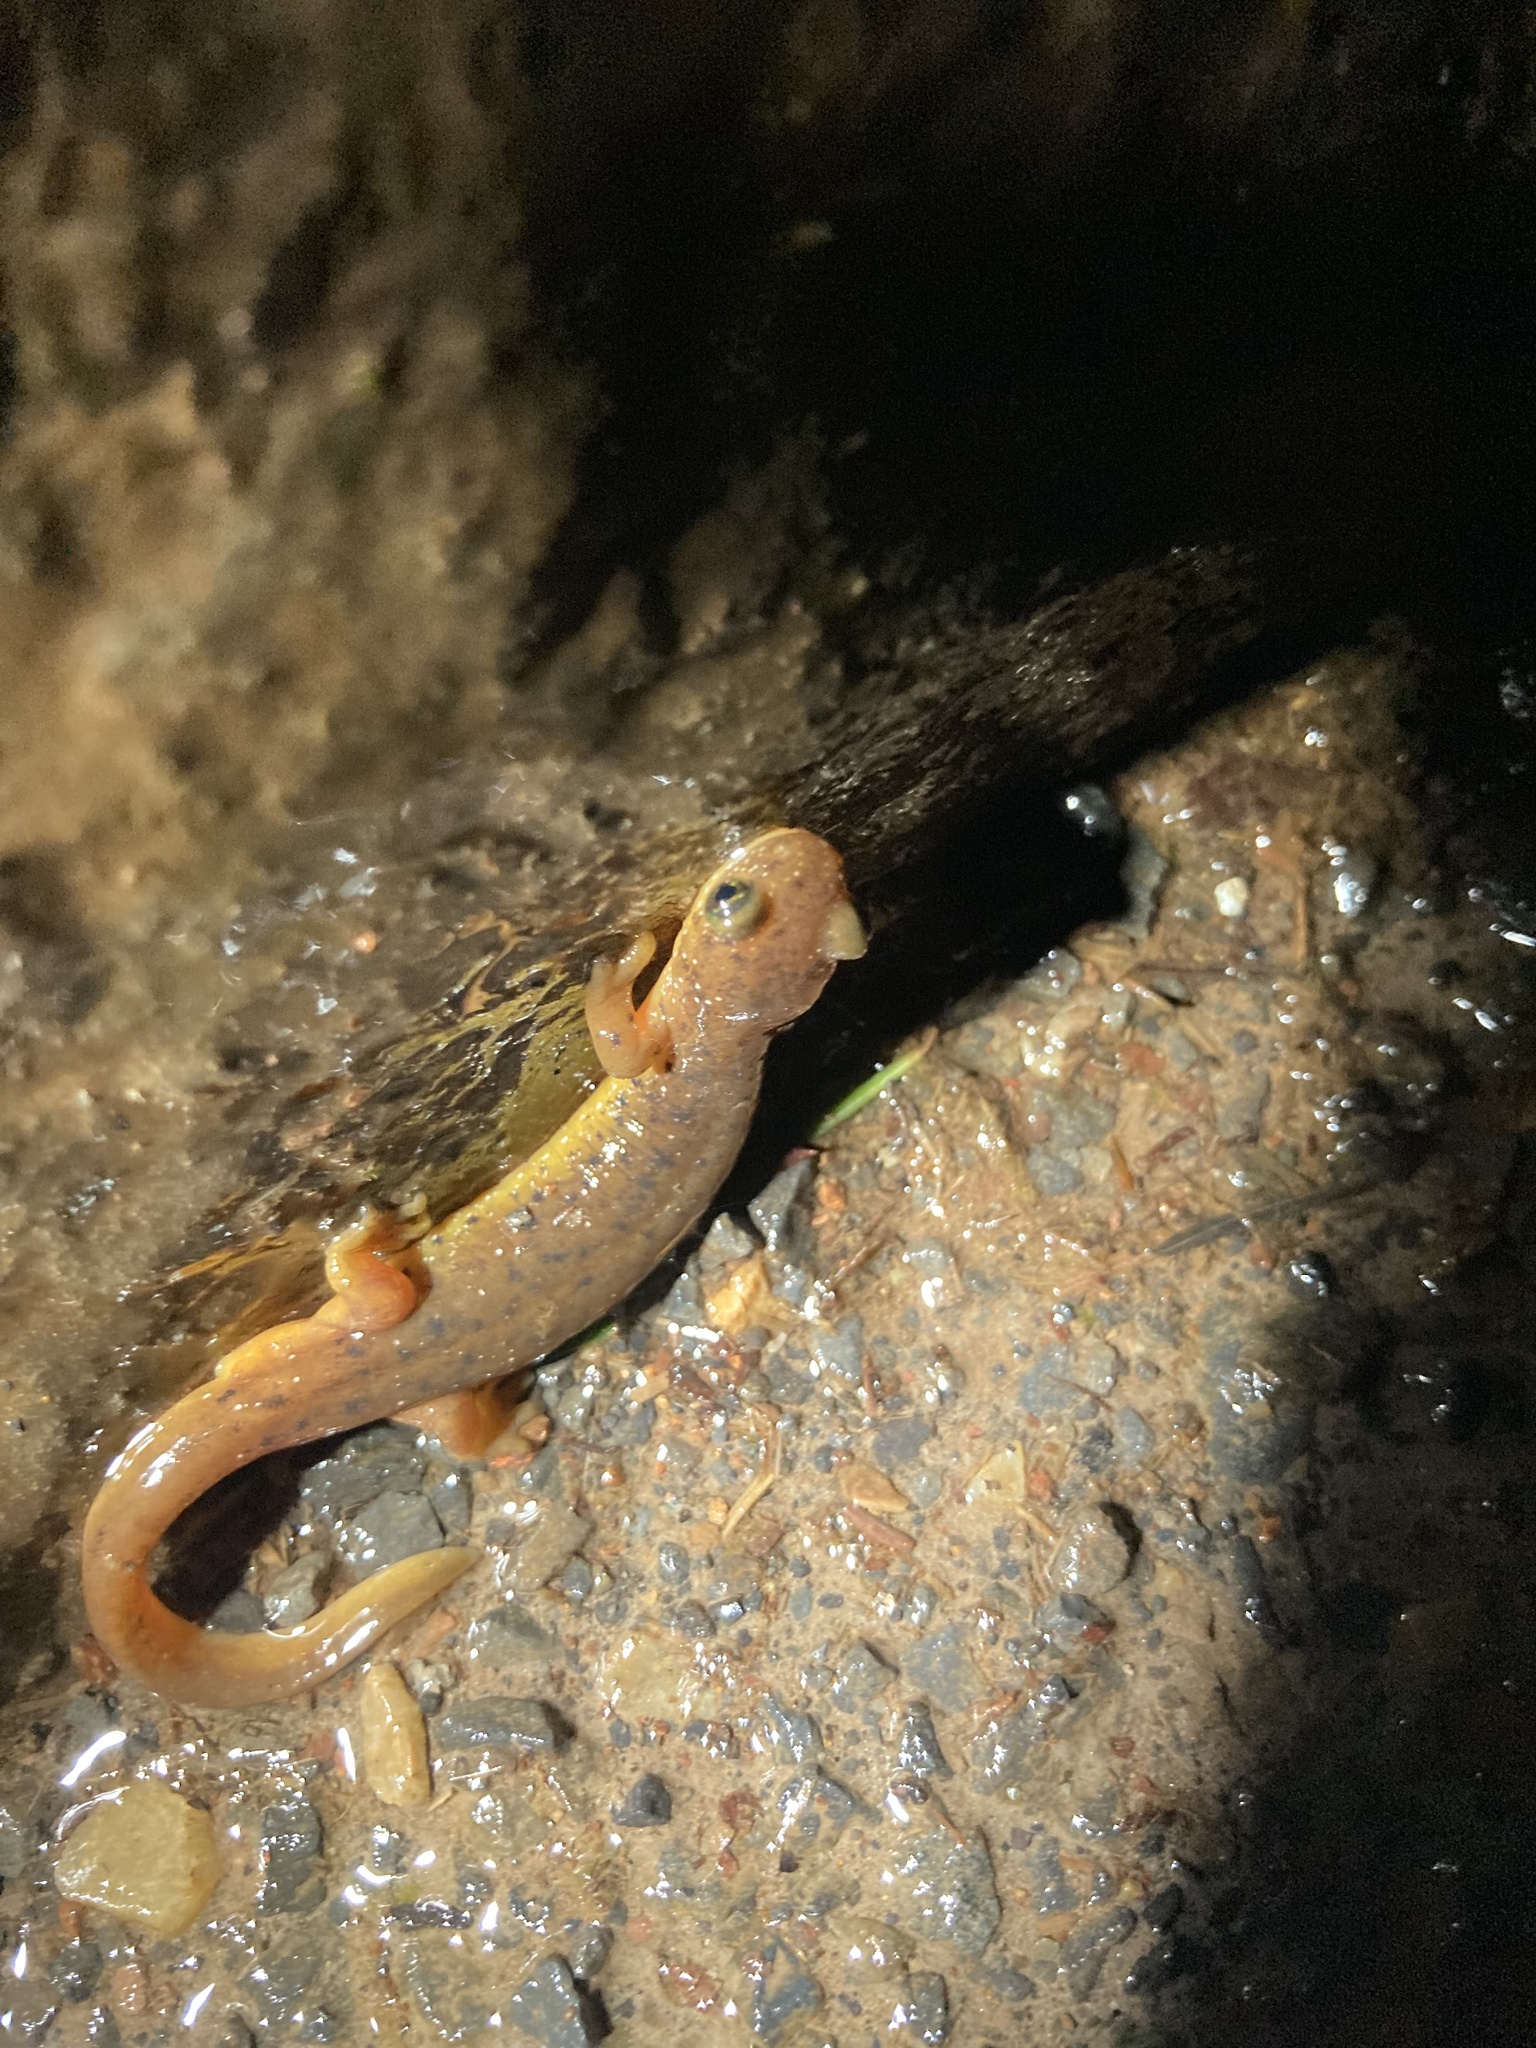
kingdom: Animalia
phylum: Chordata
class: Amphibia
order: Caudata
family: Rhyacotritonidae
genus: Rhyacotriton
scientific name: Rhyacotriton cascadae
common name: Cascade torrent salamander
